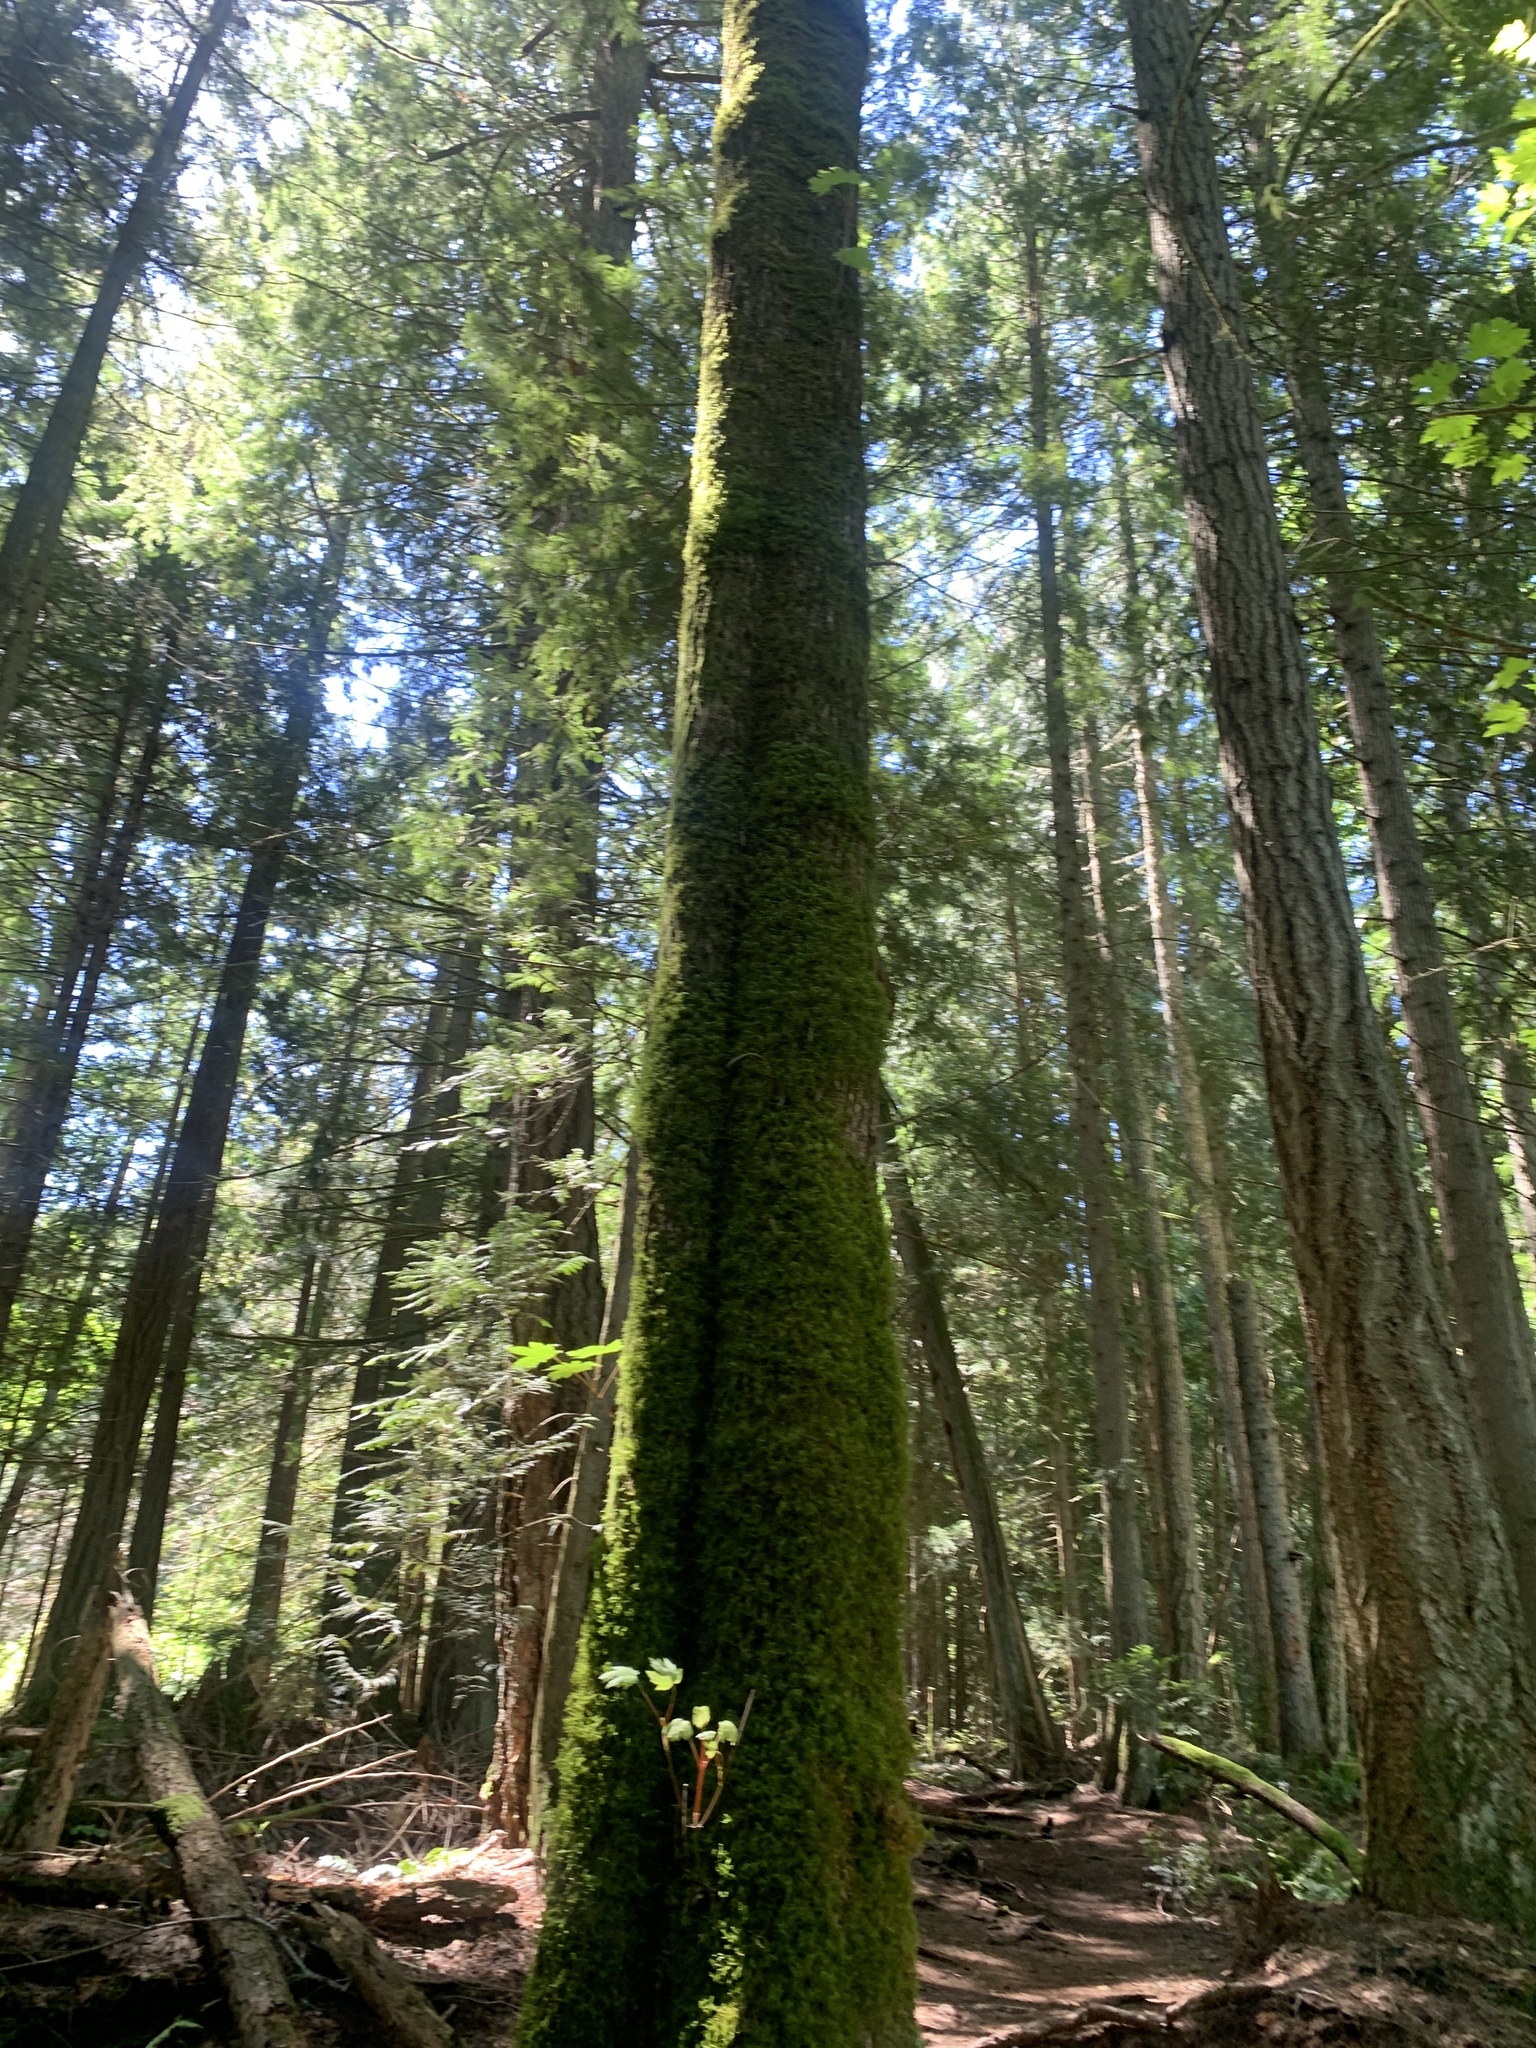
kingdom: Plantae
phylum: Tracheophyta
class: Magnoliopsida
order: Sapindales
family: Sapindaceae
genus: Acer
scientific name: Acer macrophyllum
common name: Oregon maple
